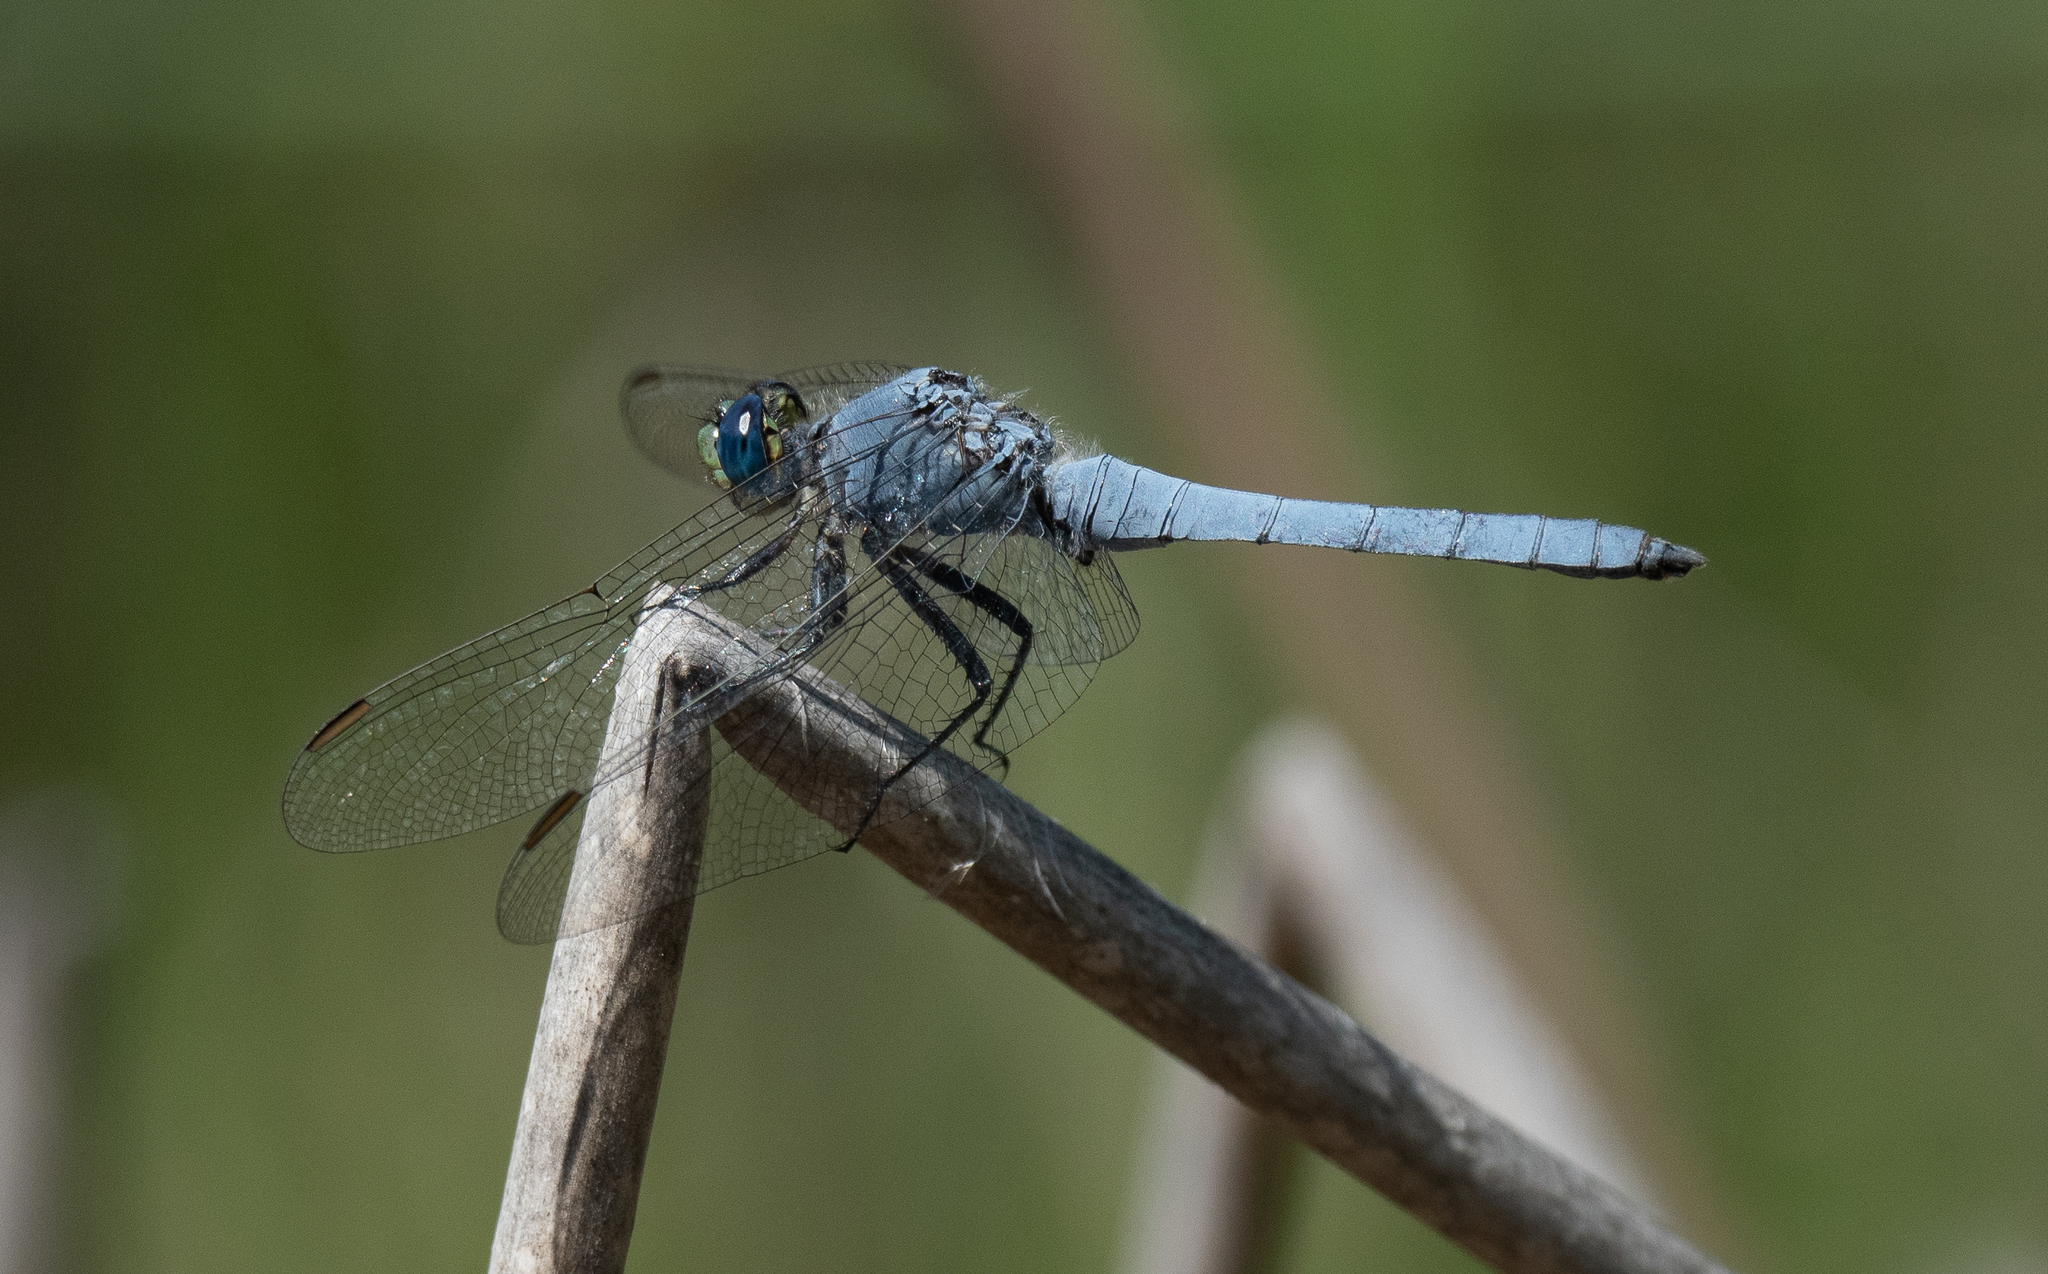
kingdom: Animalia
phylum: Arthropoda
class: Insecta
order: Odonata
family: Libellulidae
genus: Erythemis
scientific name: Erythemis collocata
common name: Western pondhawk
